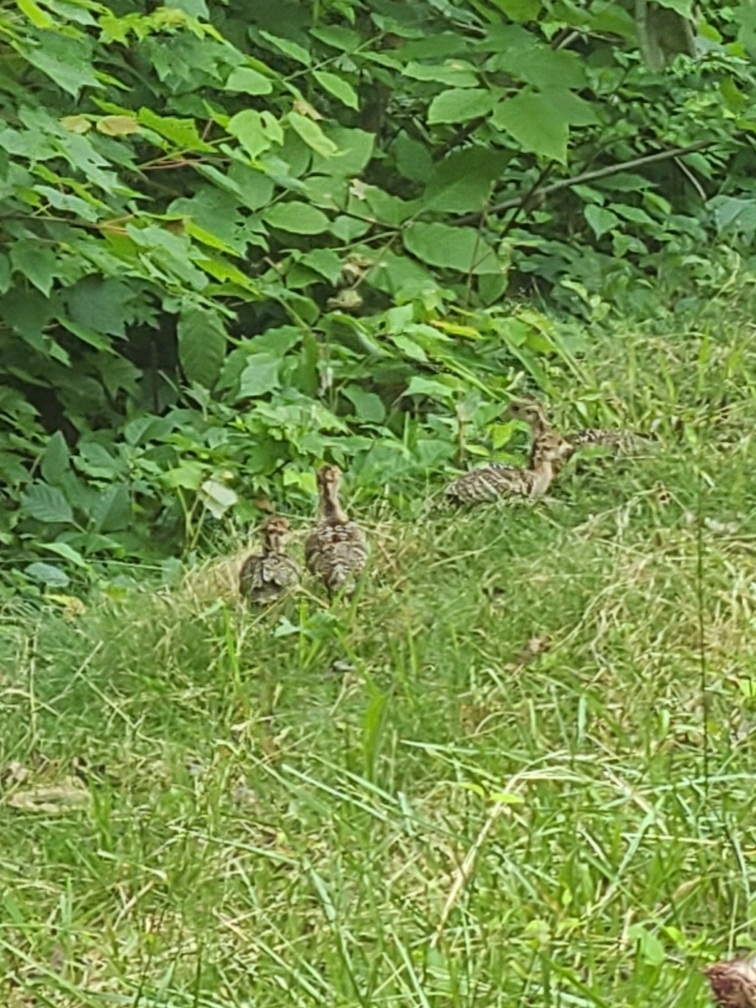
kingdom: Animalia
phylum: Chordata
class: Aves
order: Galliformes
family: Phasianidae
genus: Meleagris
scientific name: Meleagris gallopavo
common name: Wild turkey
